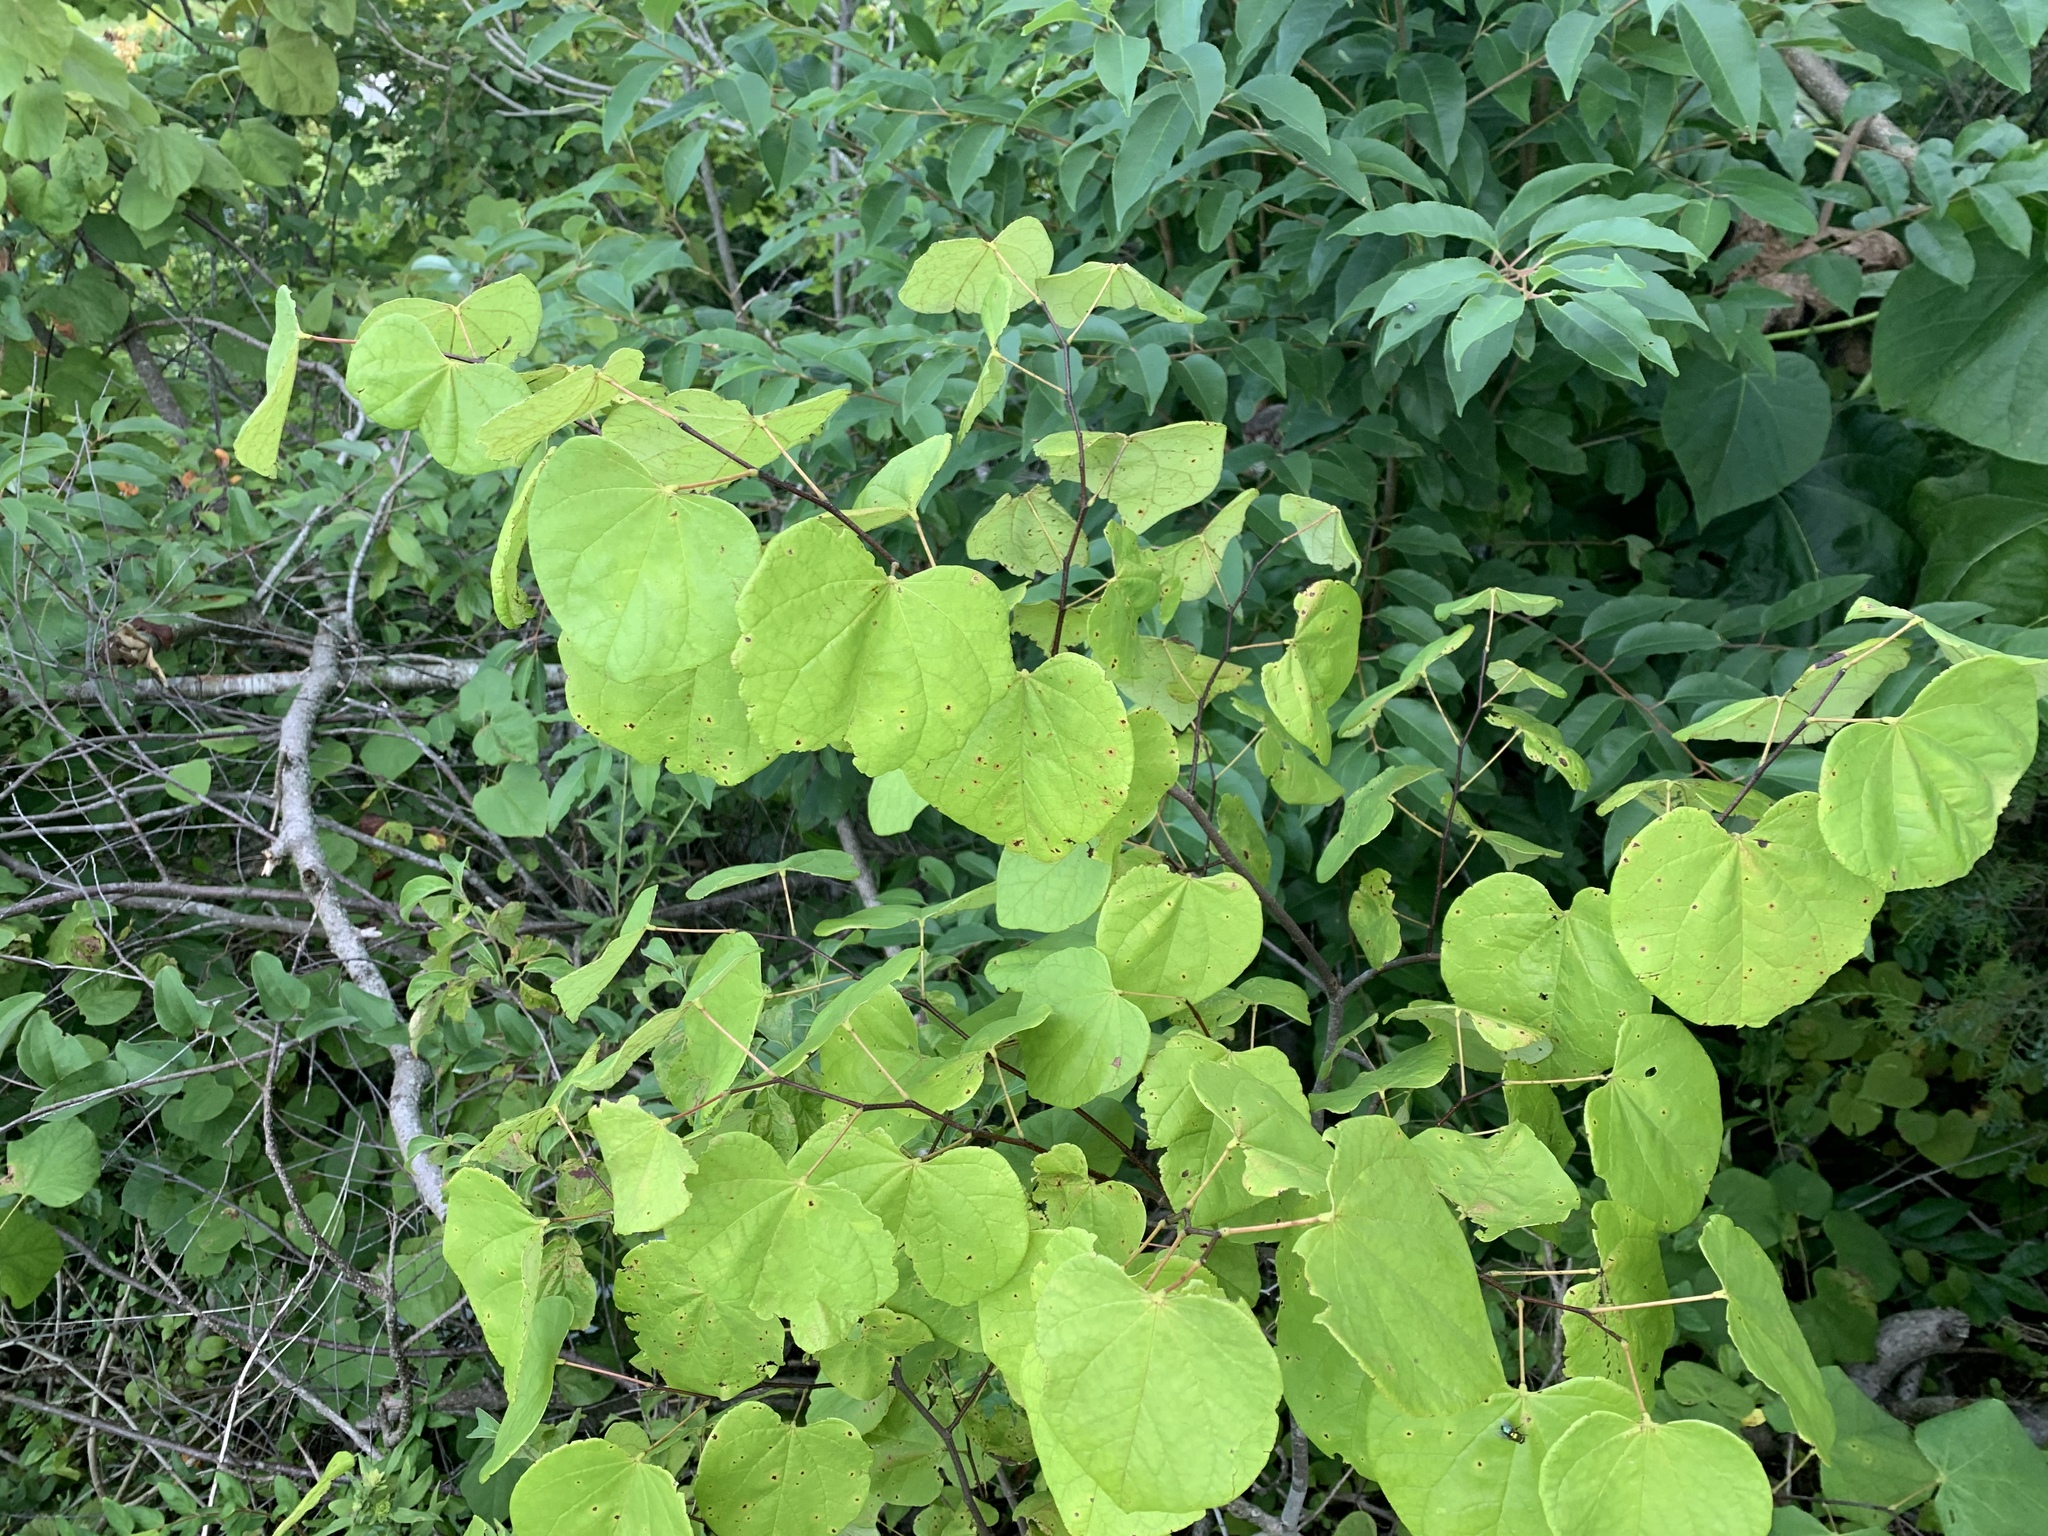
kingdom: Plantae
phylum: Tracheophyta
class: Magnoliopsida
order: Fabales
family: Fabaceae
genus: Cercis
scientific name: Cercis canadensis
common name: Eastern redbud
